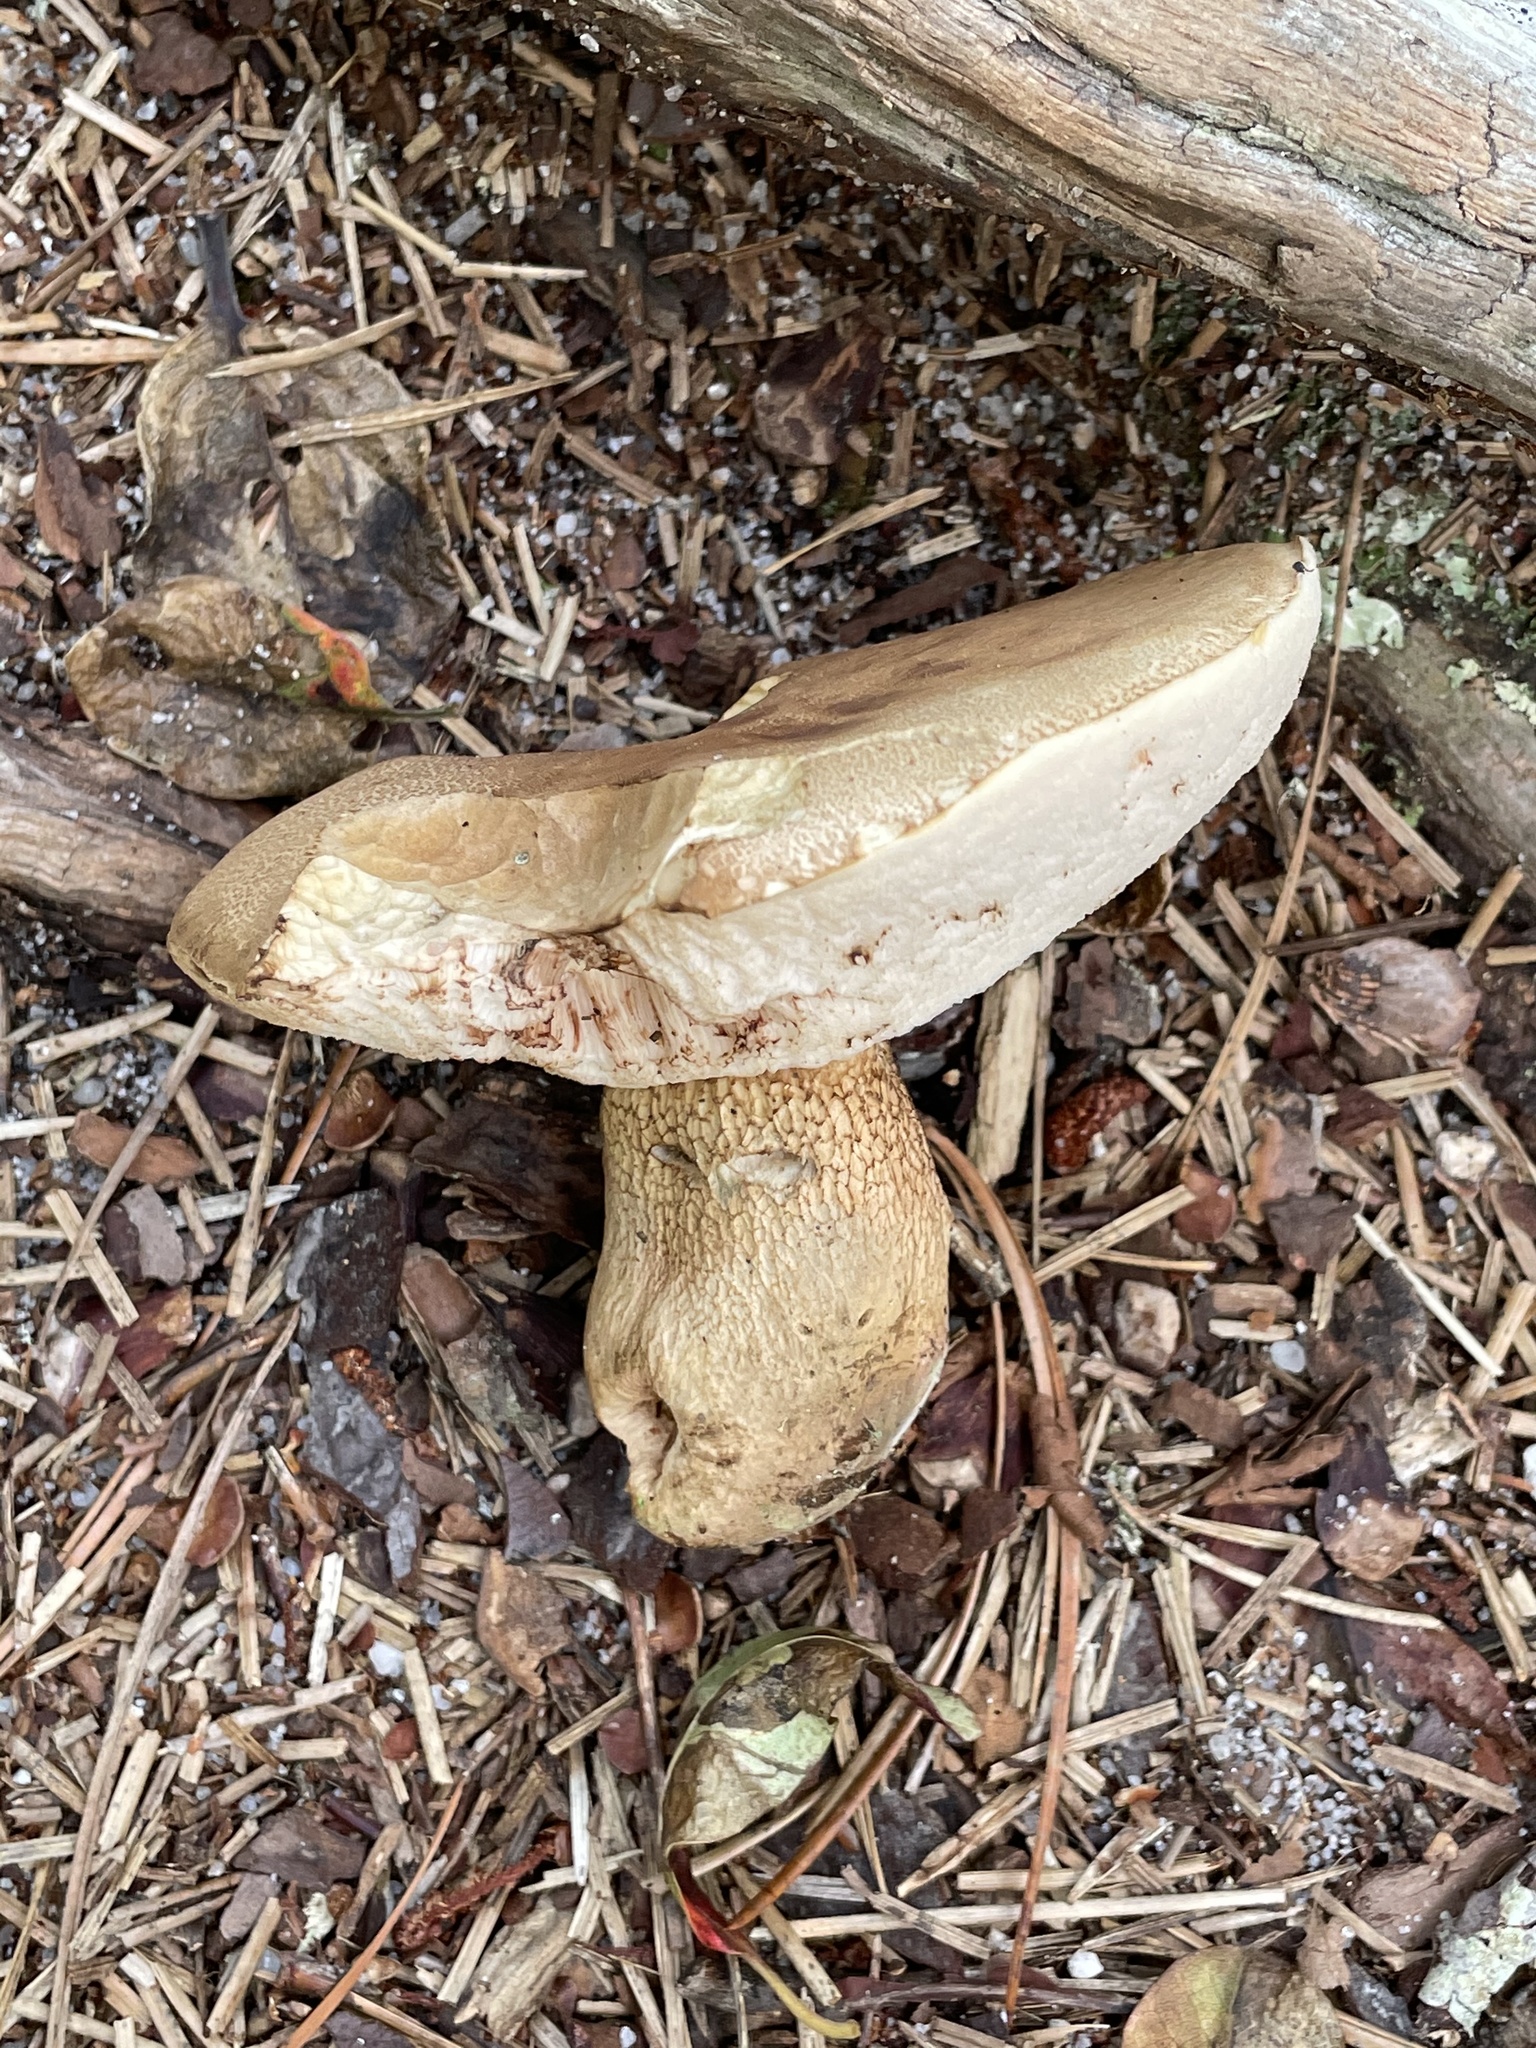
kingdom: Fungi
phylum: Basidiomycota
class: Agaricomycetes
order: Boletales
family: Boletaceae
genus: Tylopilus
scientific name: Tylopilus felleus
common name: Bitter bolete
